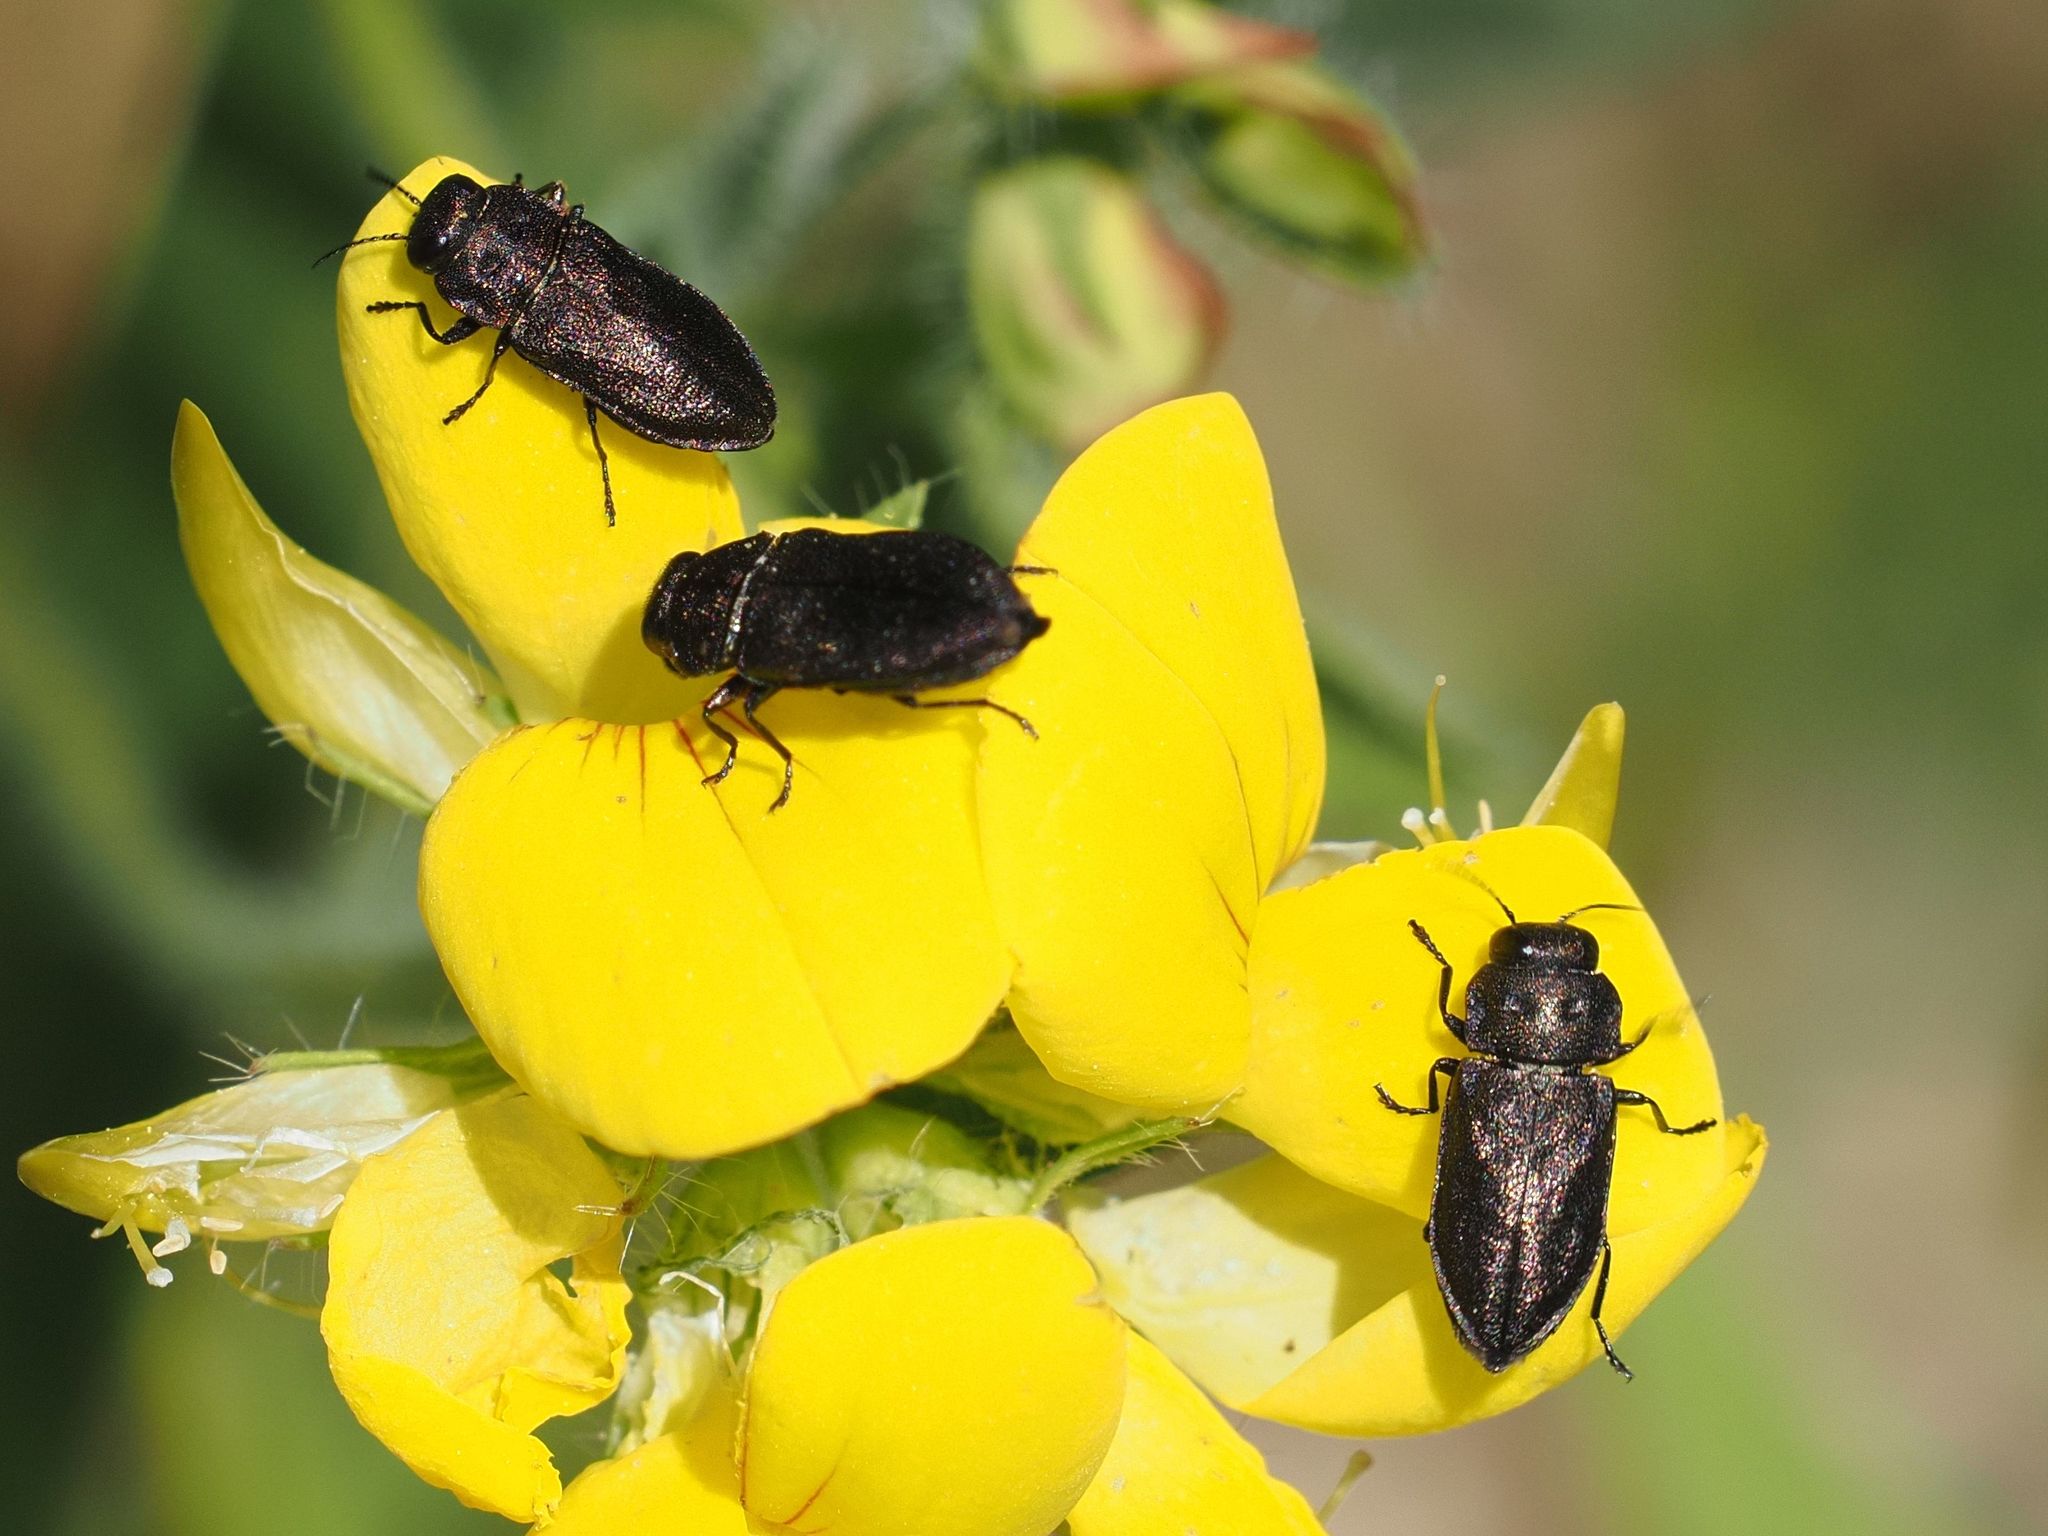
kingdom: Animalia
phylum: Arthropoda
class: Insecta
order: Coleoptera
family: Buprestidae
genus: Anthaxia
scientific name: Anthaxia quadripunctata
